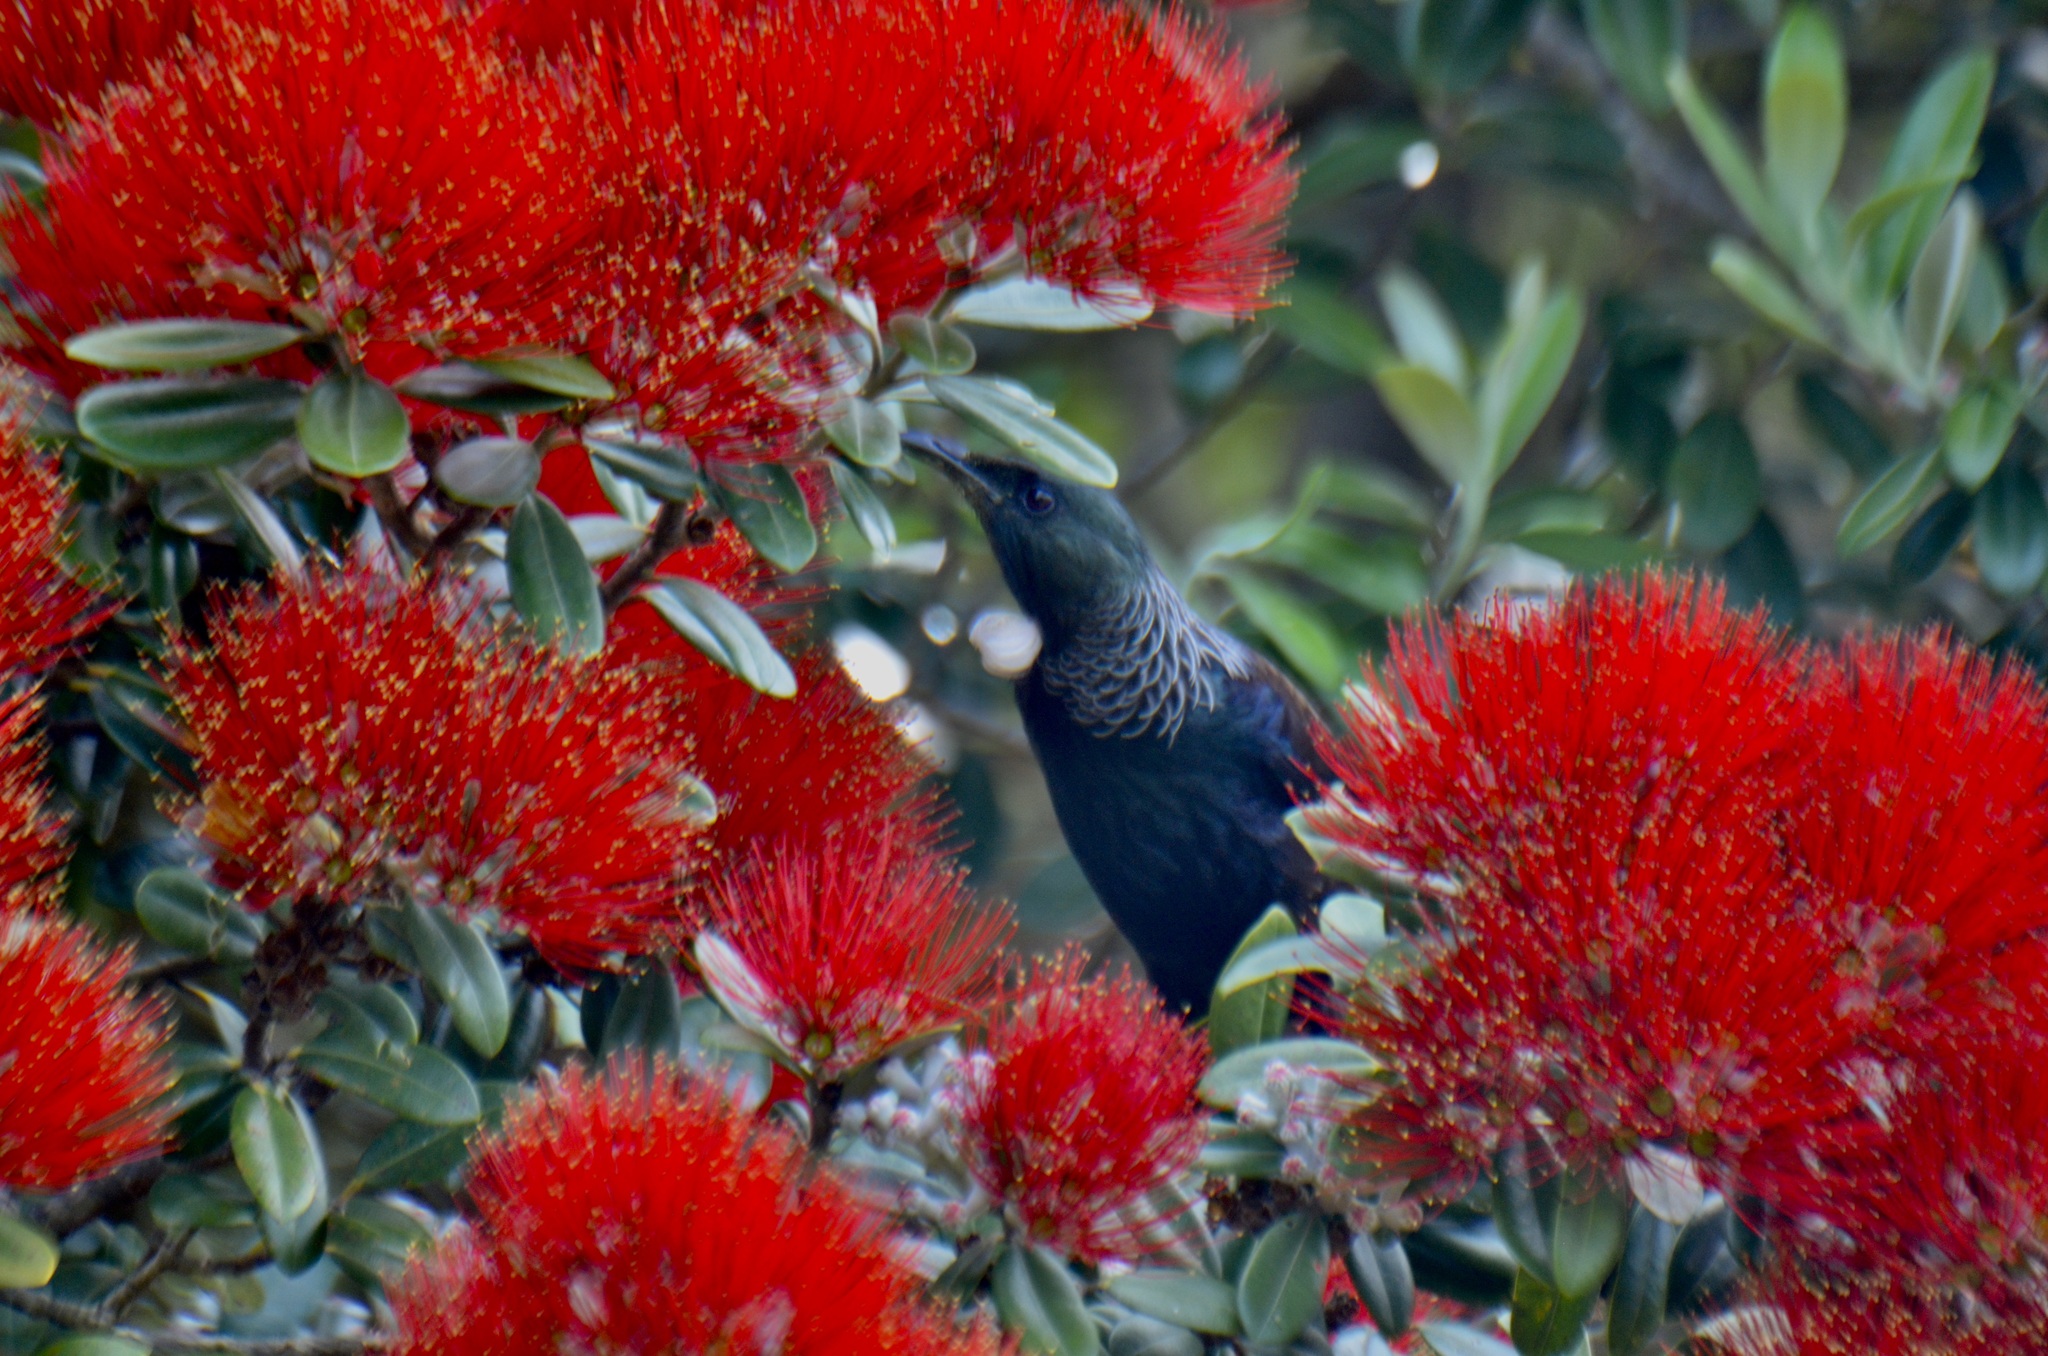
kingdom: Animalia
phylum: Chordata
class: Aves
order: Passeriformes
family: Meliphagidae
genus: Prosthemadera
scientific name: Prosthemadera novaeseelandiae
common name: Tui
